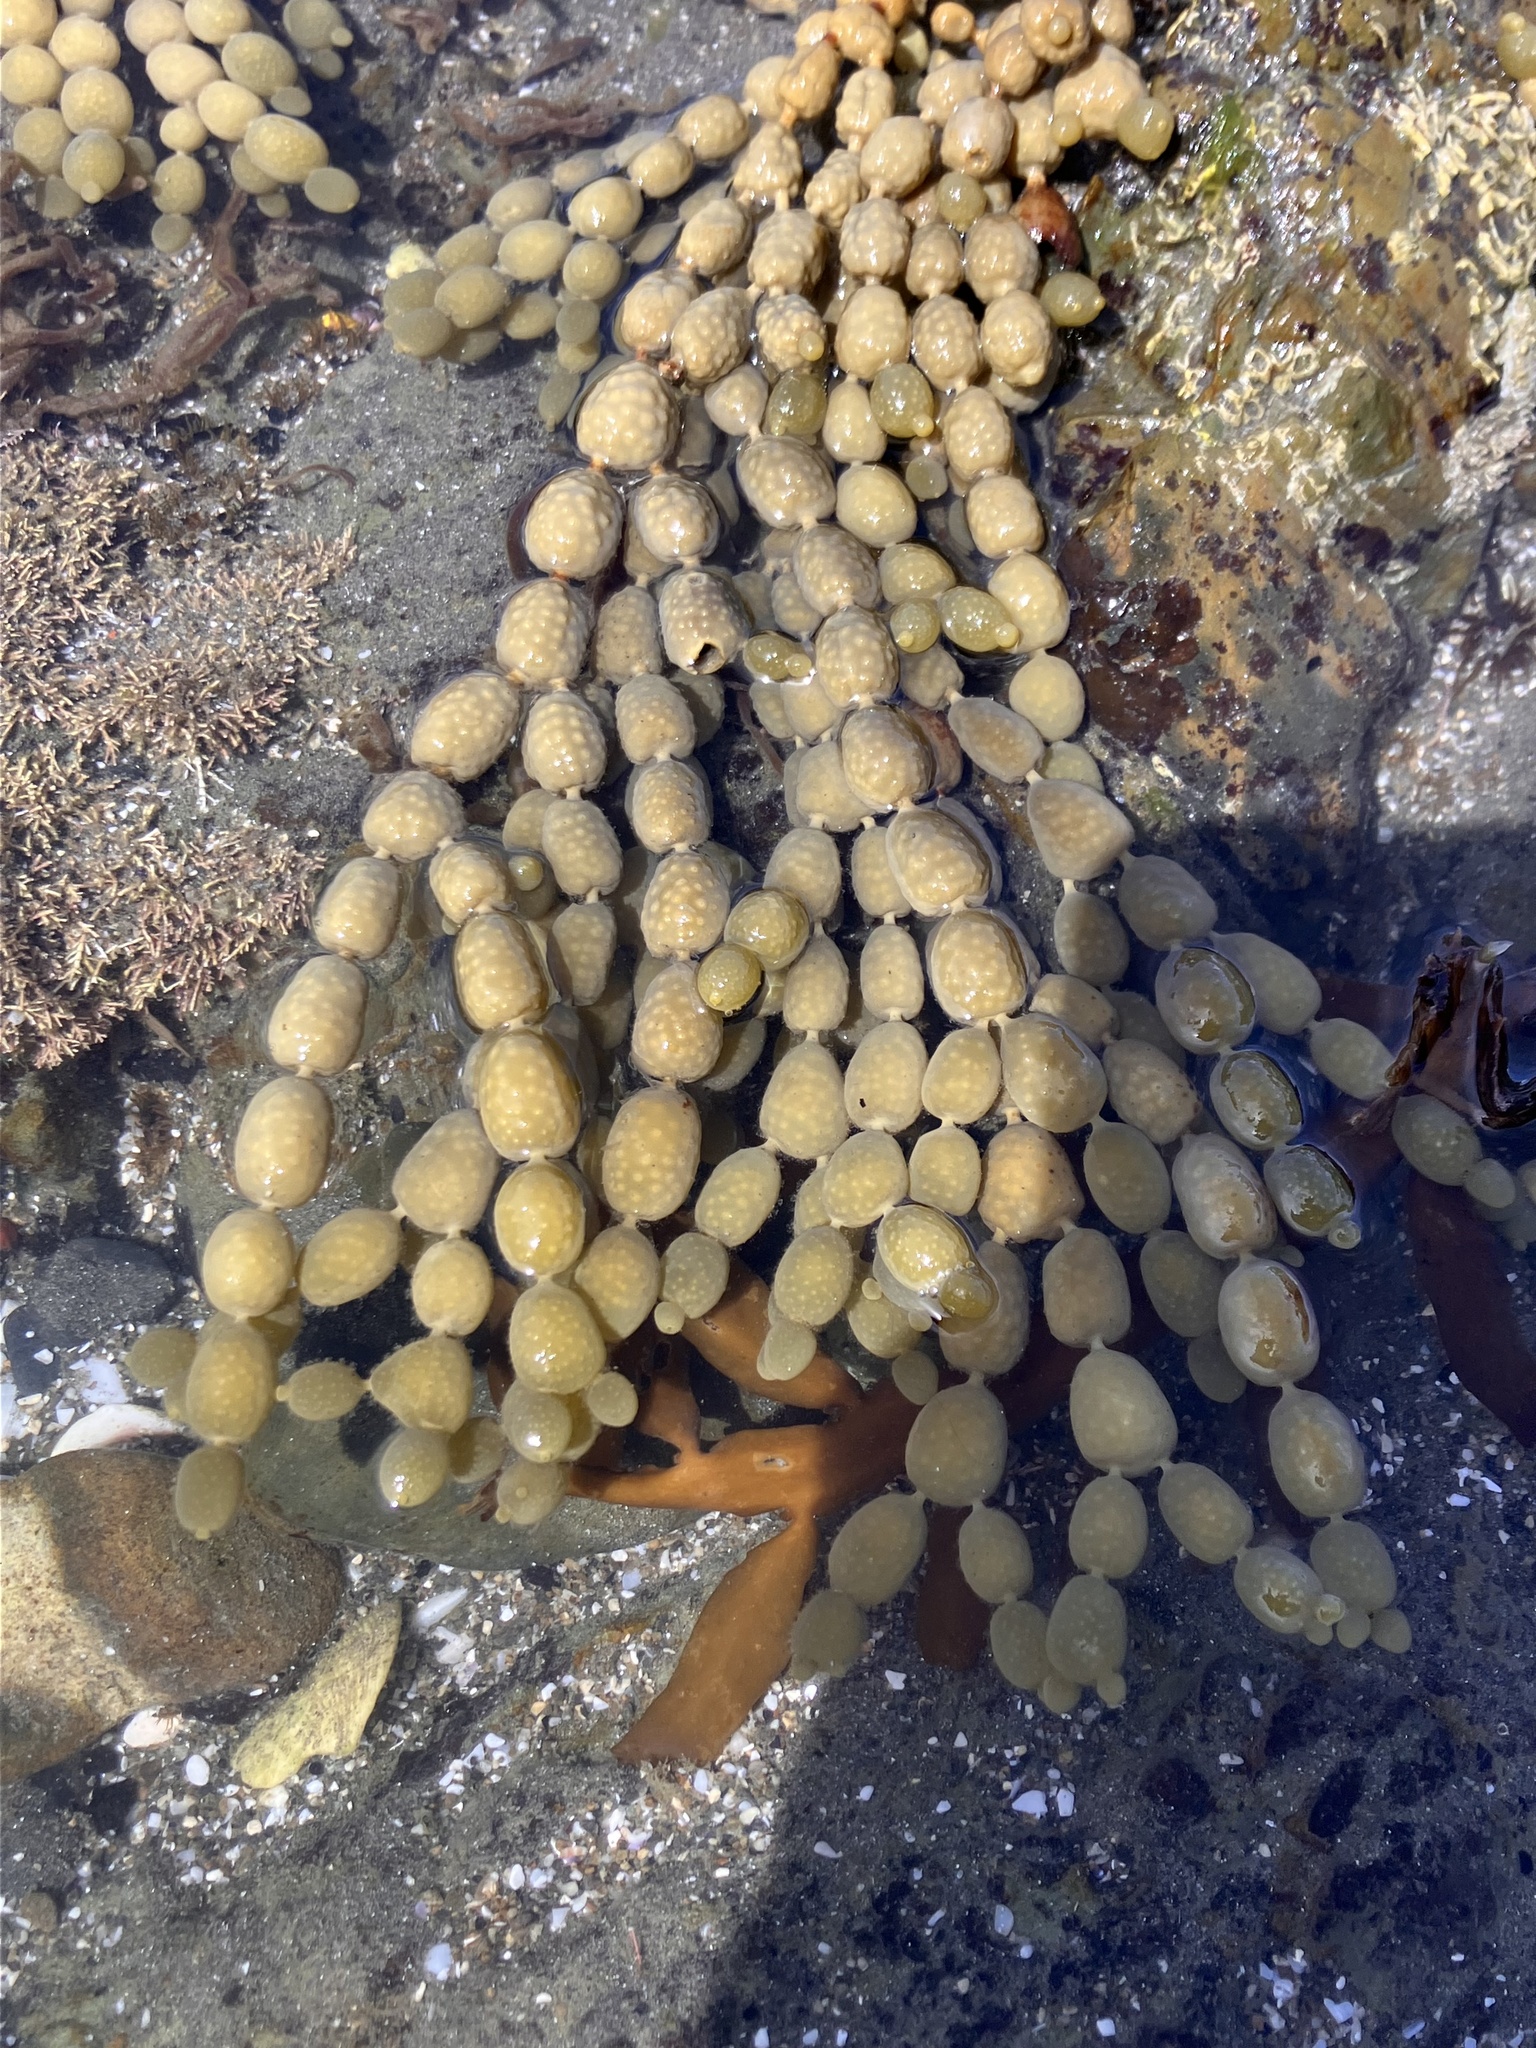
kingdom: Chromista
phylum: Ochrophyta
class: Phaeophyceae
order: Fucales
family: Hormosiraceae
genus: Hormosira
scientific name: Hormosira banksii
